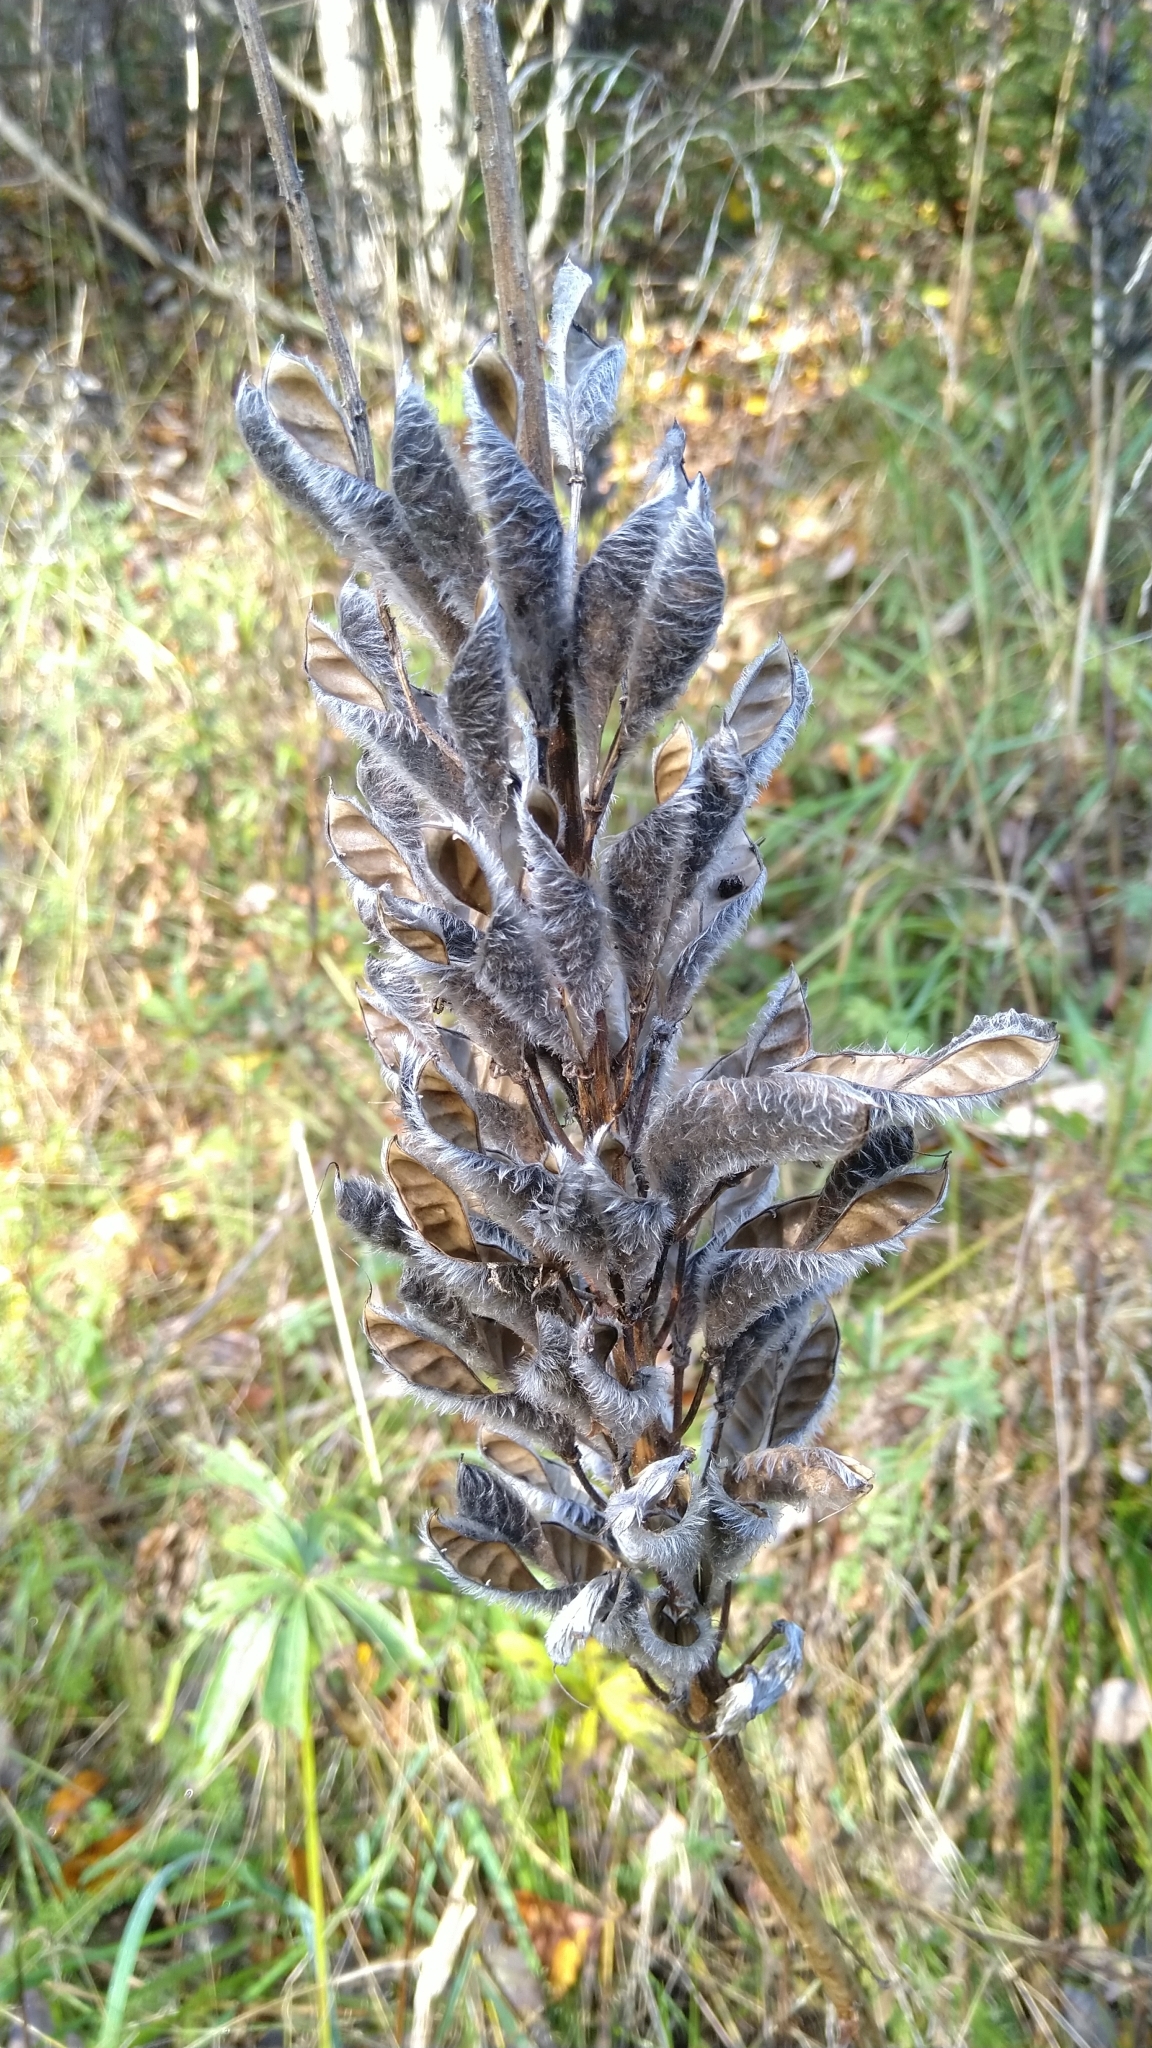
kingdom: Plantae
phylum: Tracheophyta
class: Magnoliopsida
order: Fabales
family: Fabaceae
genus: Lupinus
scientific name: Lupinus polyphyllus
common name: Garden lupin
